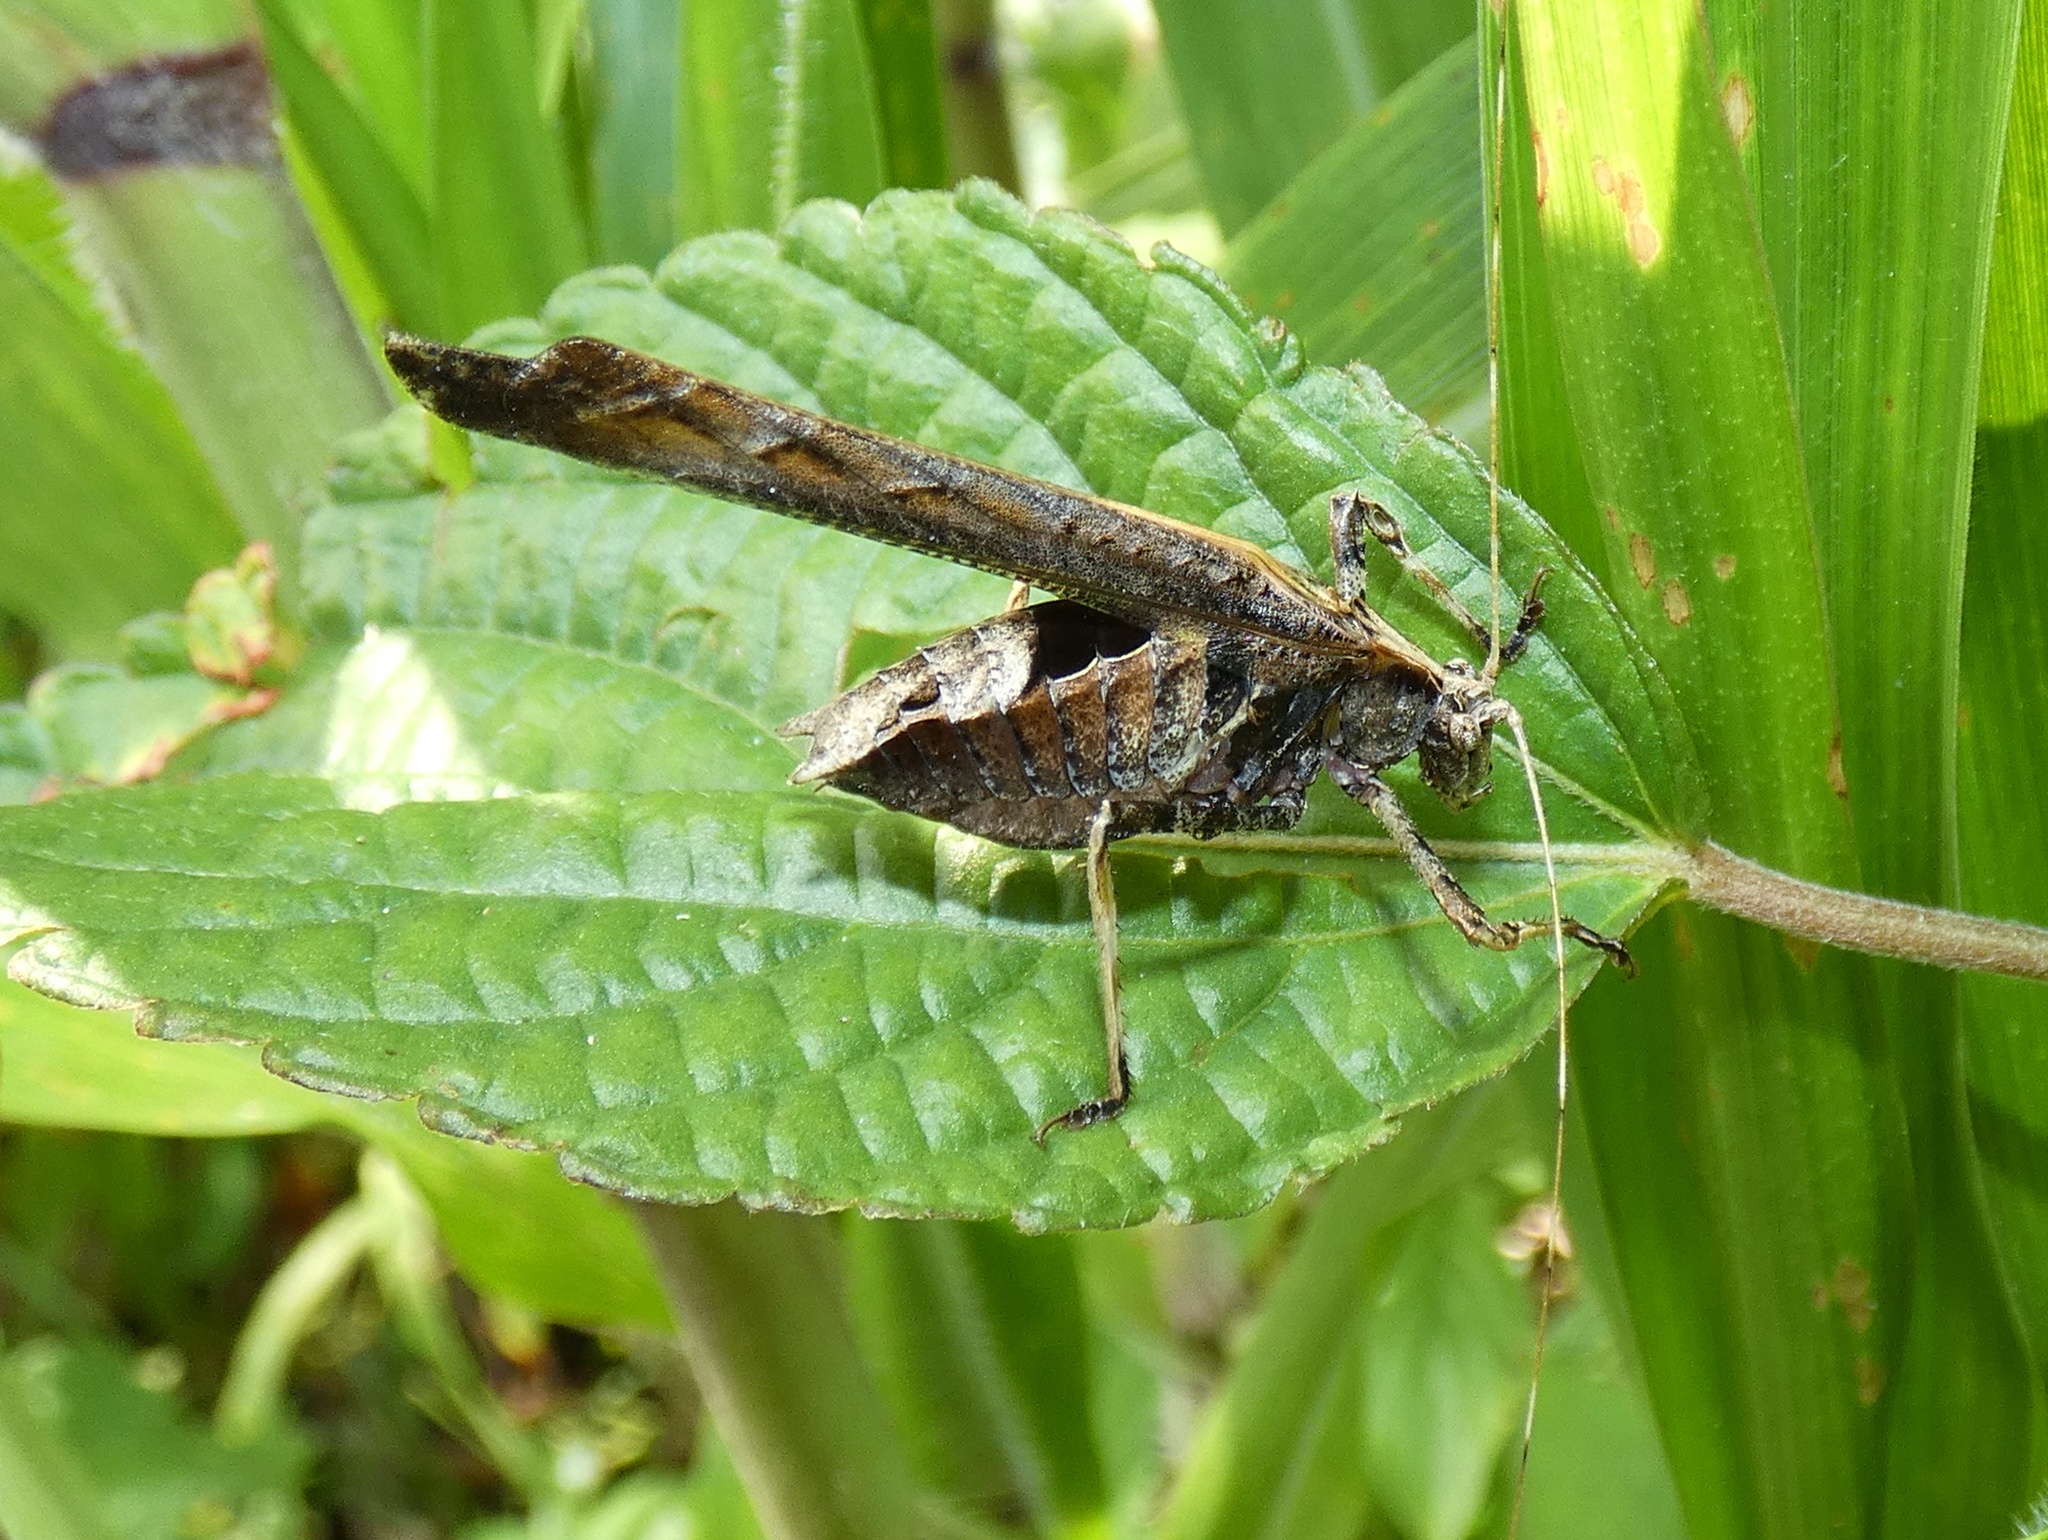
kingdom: Animalia
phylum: Arthropoda
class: Insecta
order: Orthoptera
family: Tettigoniidae
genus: Insara
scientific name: Insara bolivari
